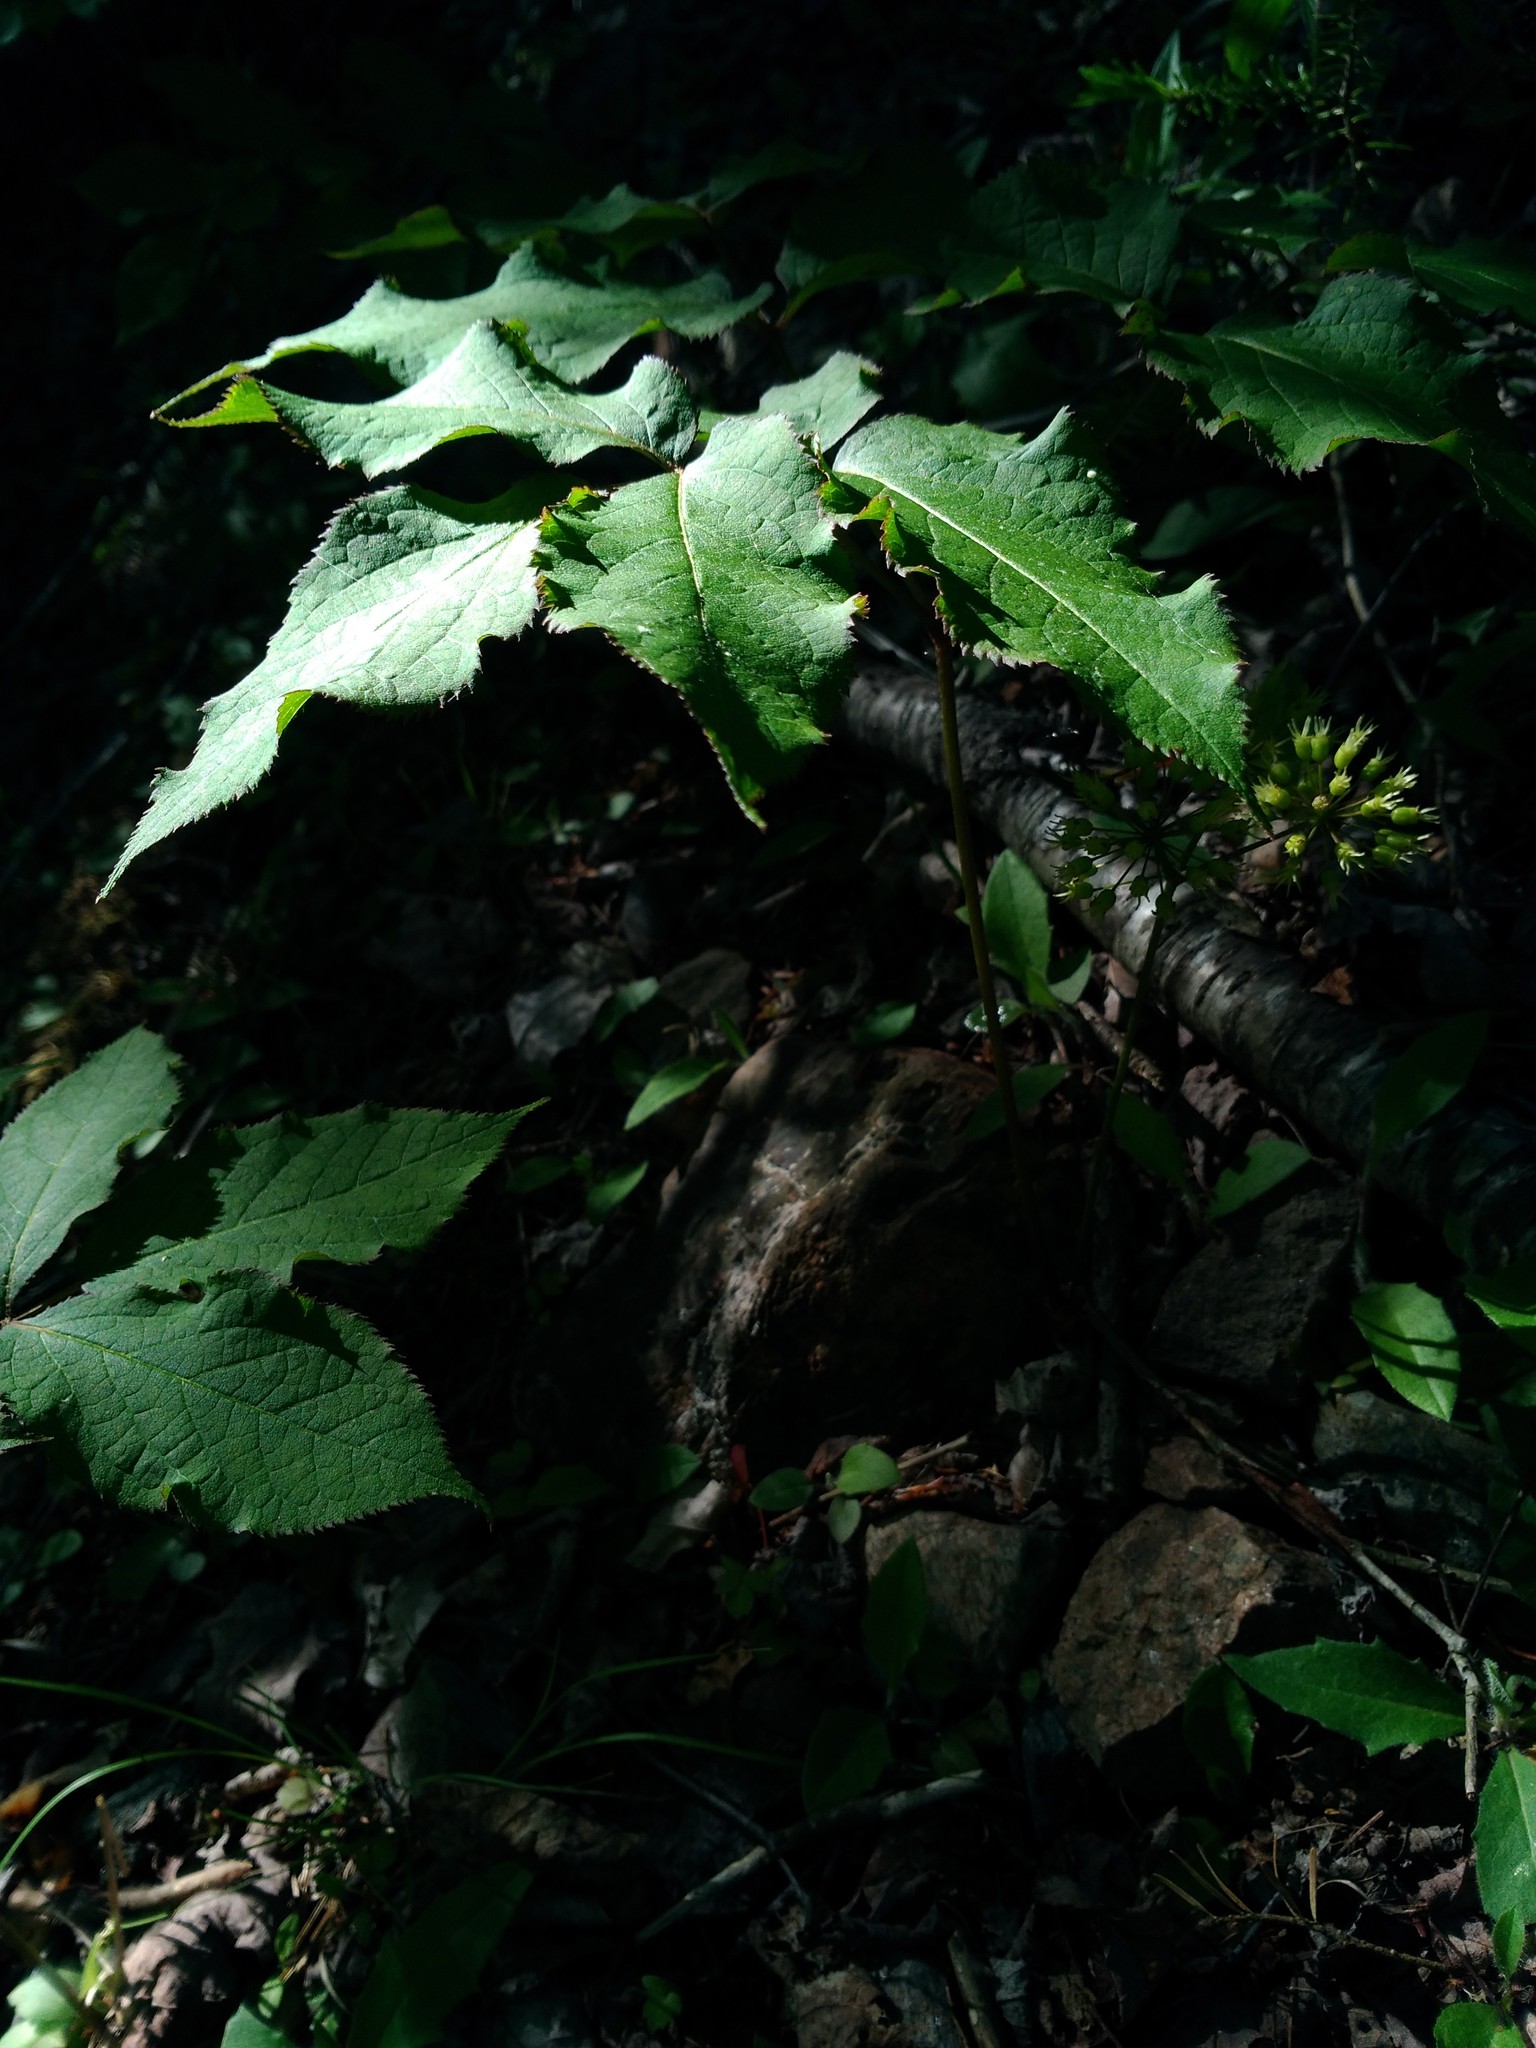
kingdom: Plantae
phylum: Tracheophyta
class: Magnoliopsida
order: Apiales
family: Araliaceae
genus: Aralia
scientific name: Aralia nudicaulis
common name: Wild sarsaparilla
